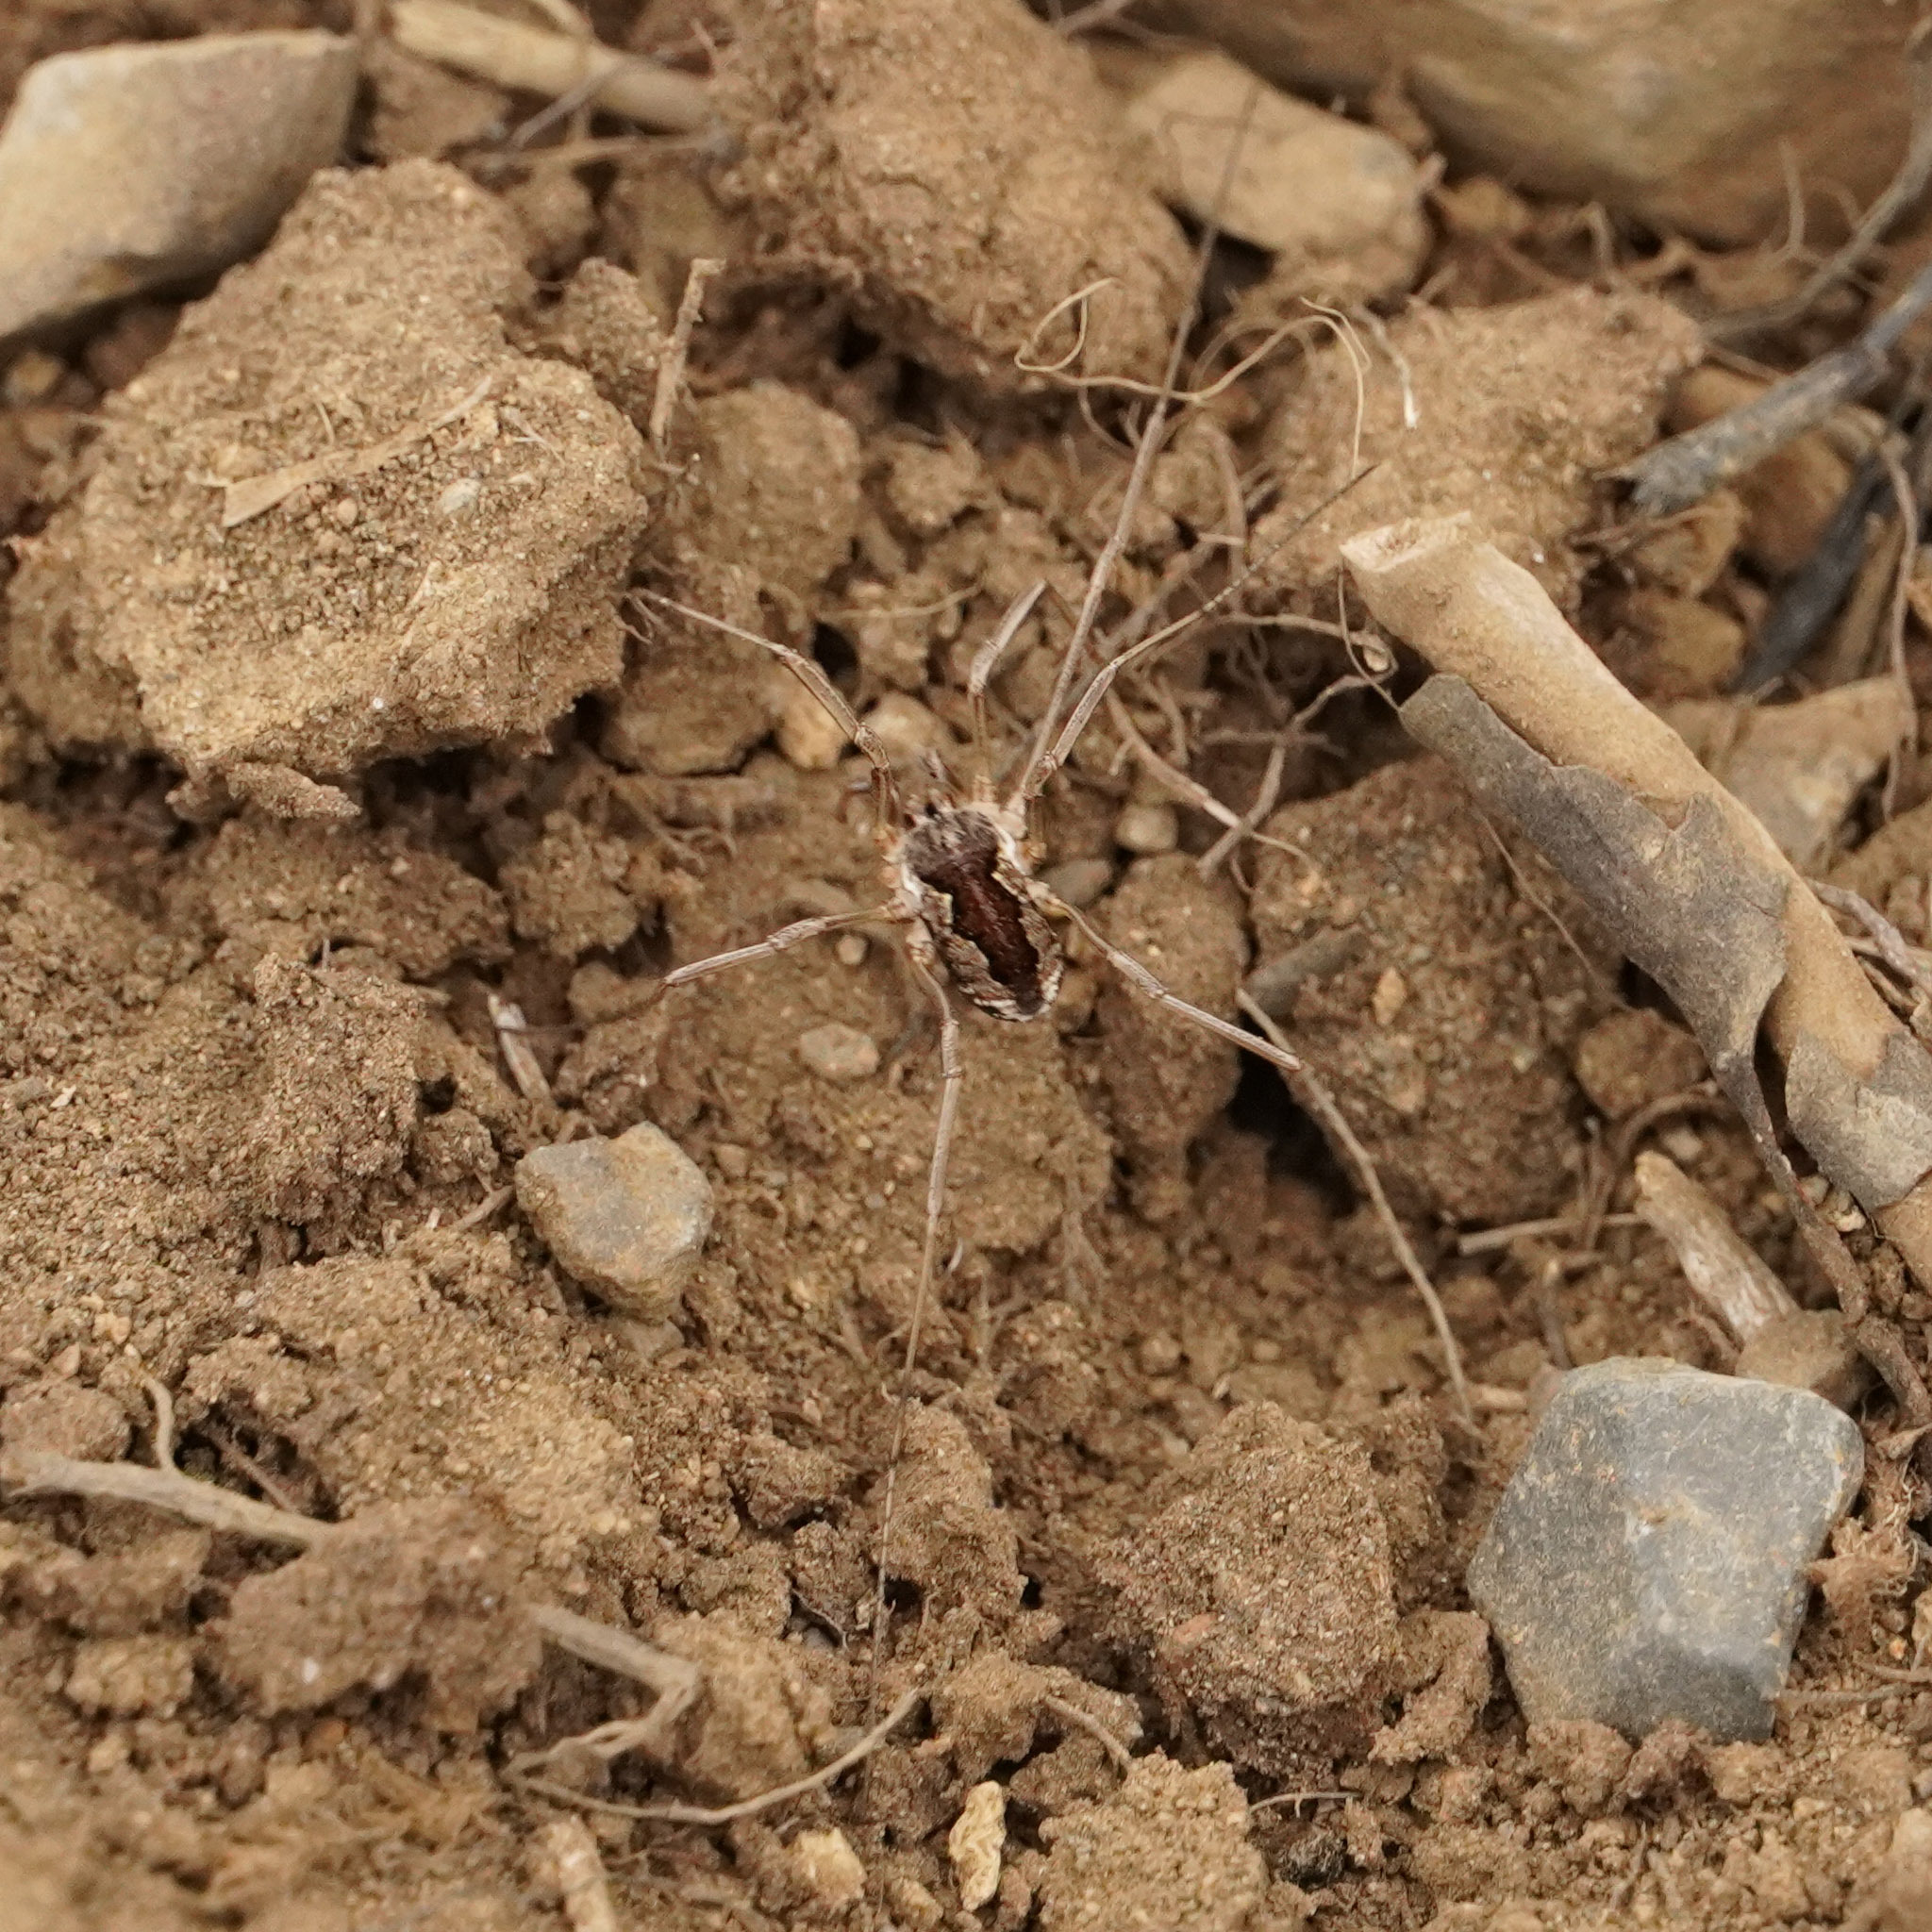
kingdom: Animalia
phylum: Arthropoda
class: Arachnida
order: Opiliones
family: Phalangiidae
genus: Mitopus
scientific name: Mitopus morio
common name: Saddleback harvestman
